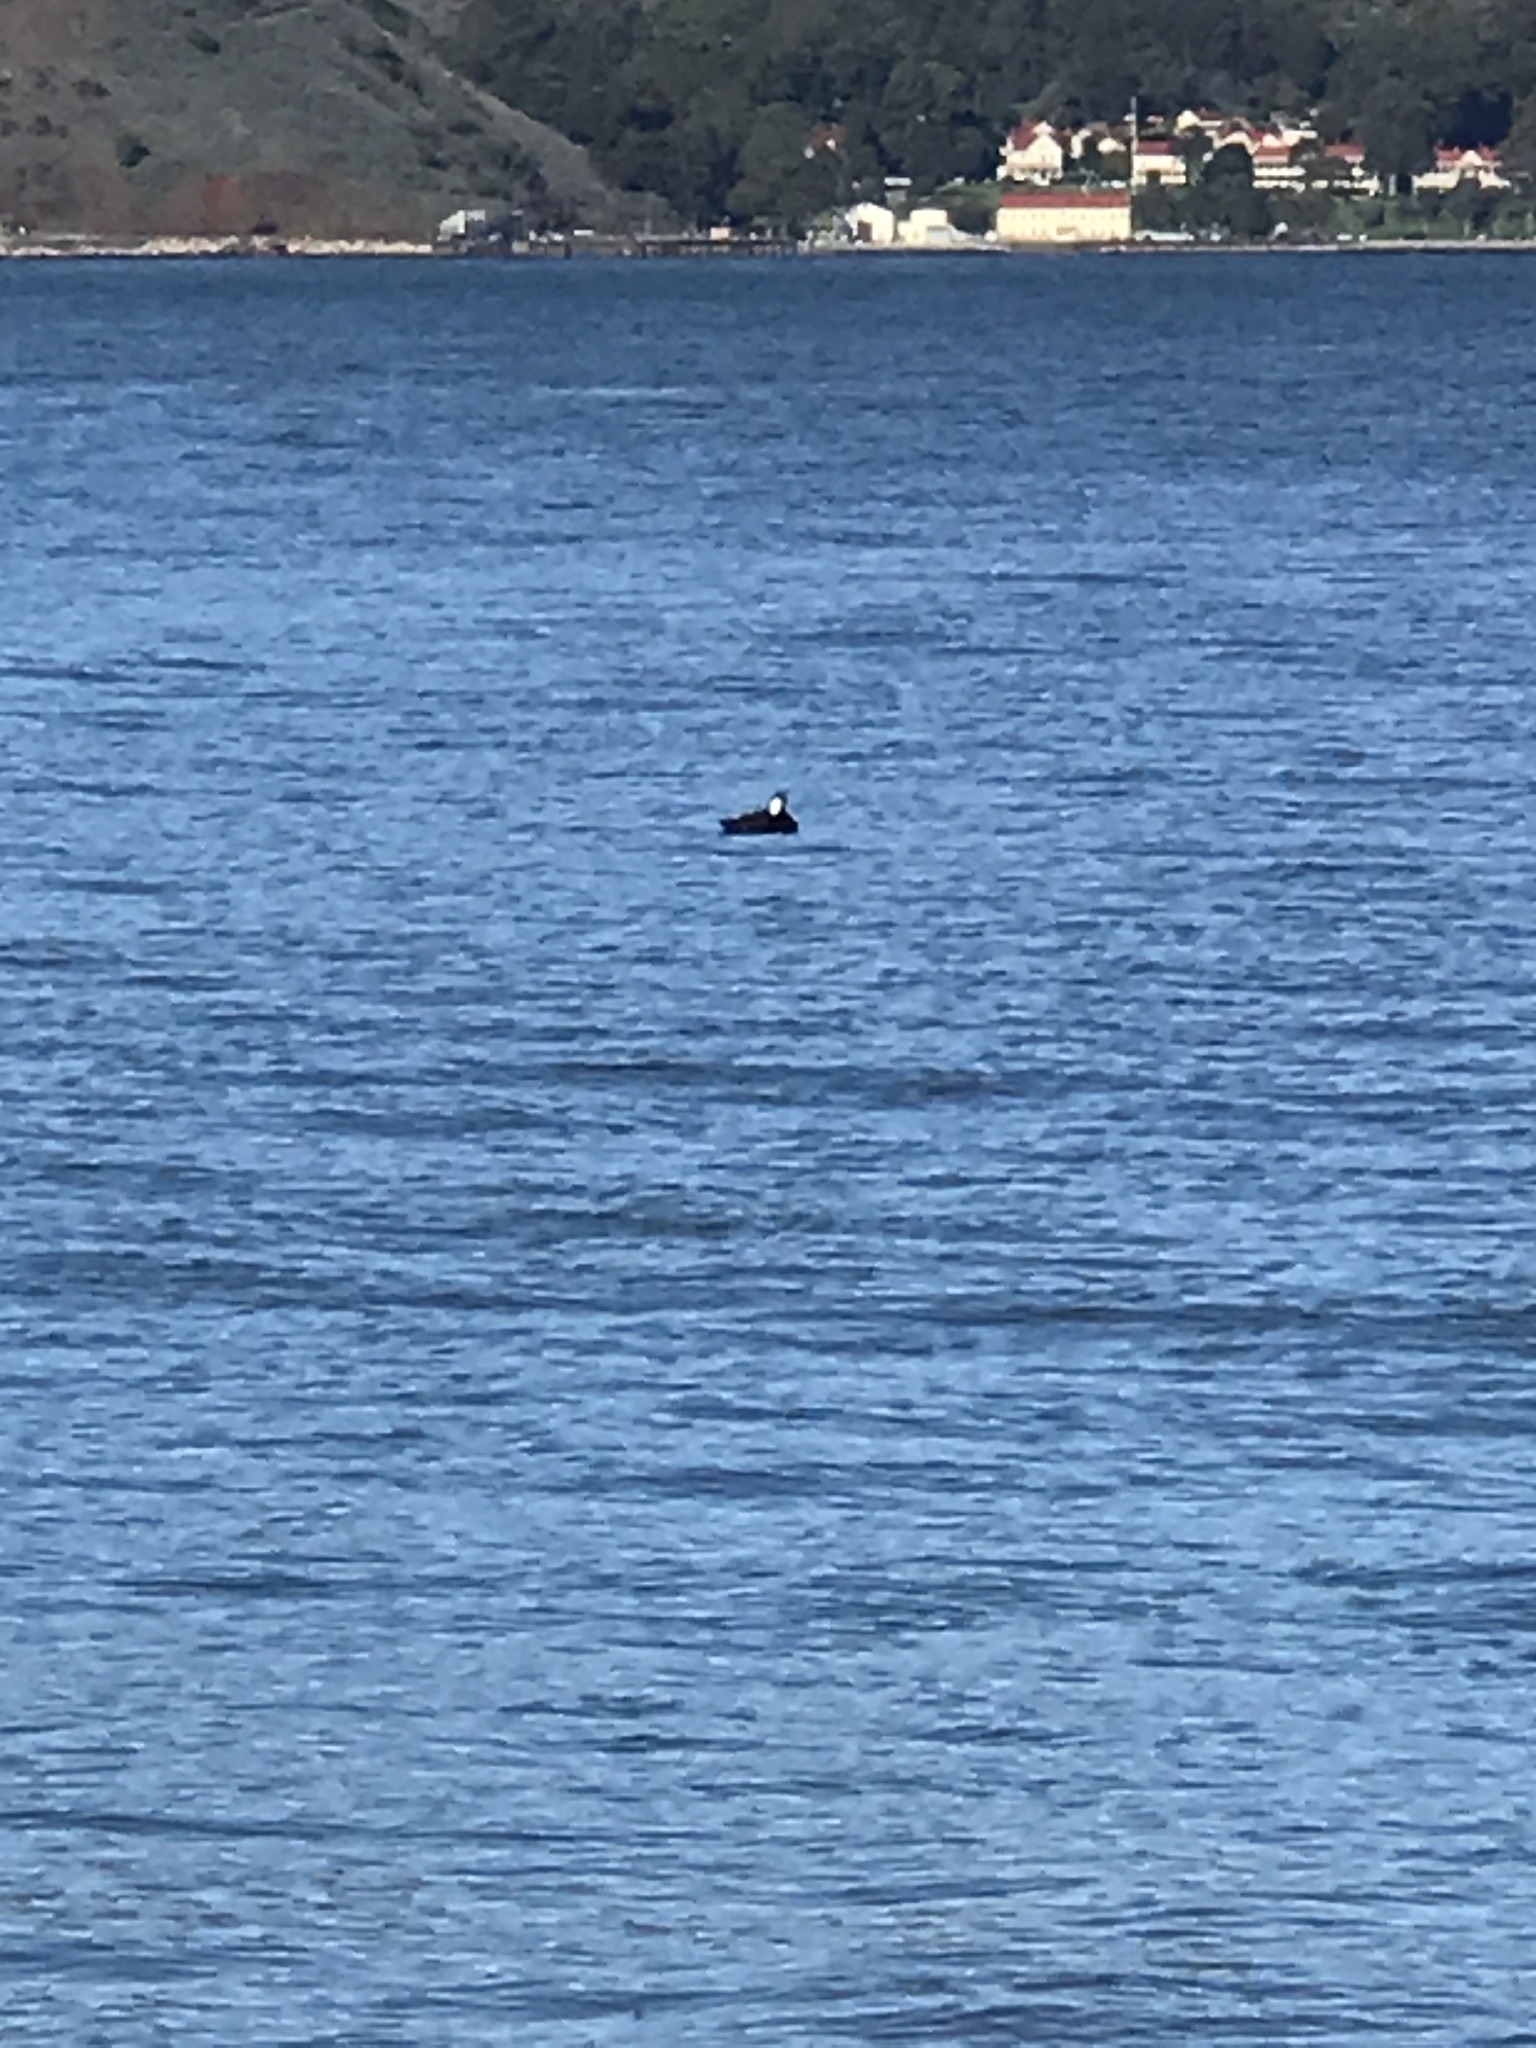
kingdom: Animalia
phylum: Chordata
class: Aves
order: Anseriformes
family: Anatidae
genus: Melanitta
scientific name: Melanitta perspicillata
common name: Surf scoter
